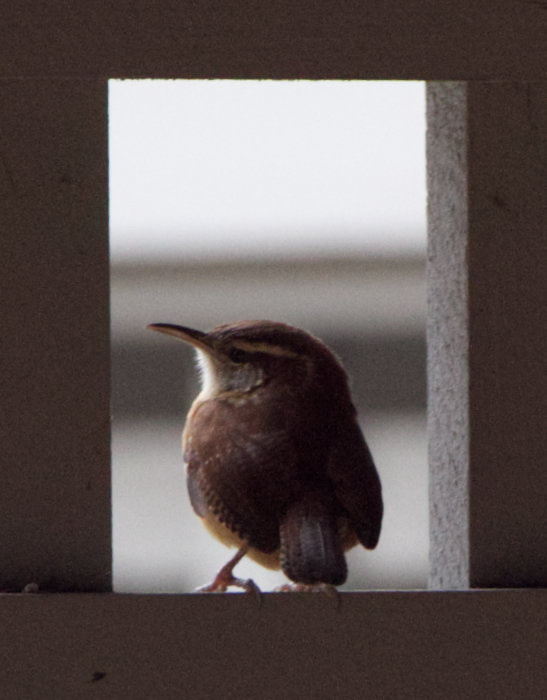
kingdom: Animalia
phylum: Chordata
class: Aves
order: Passeriformes
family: Troglodytidae
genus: Thryothorus
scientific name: Thryothorus ludovicianus
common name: Carolina wren
